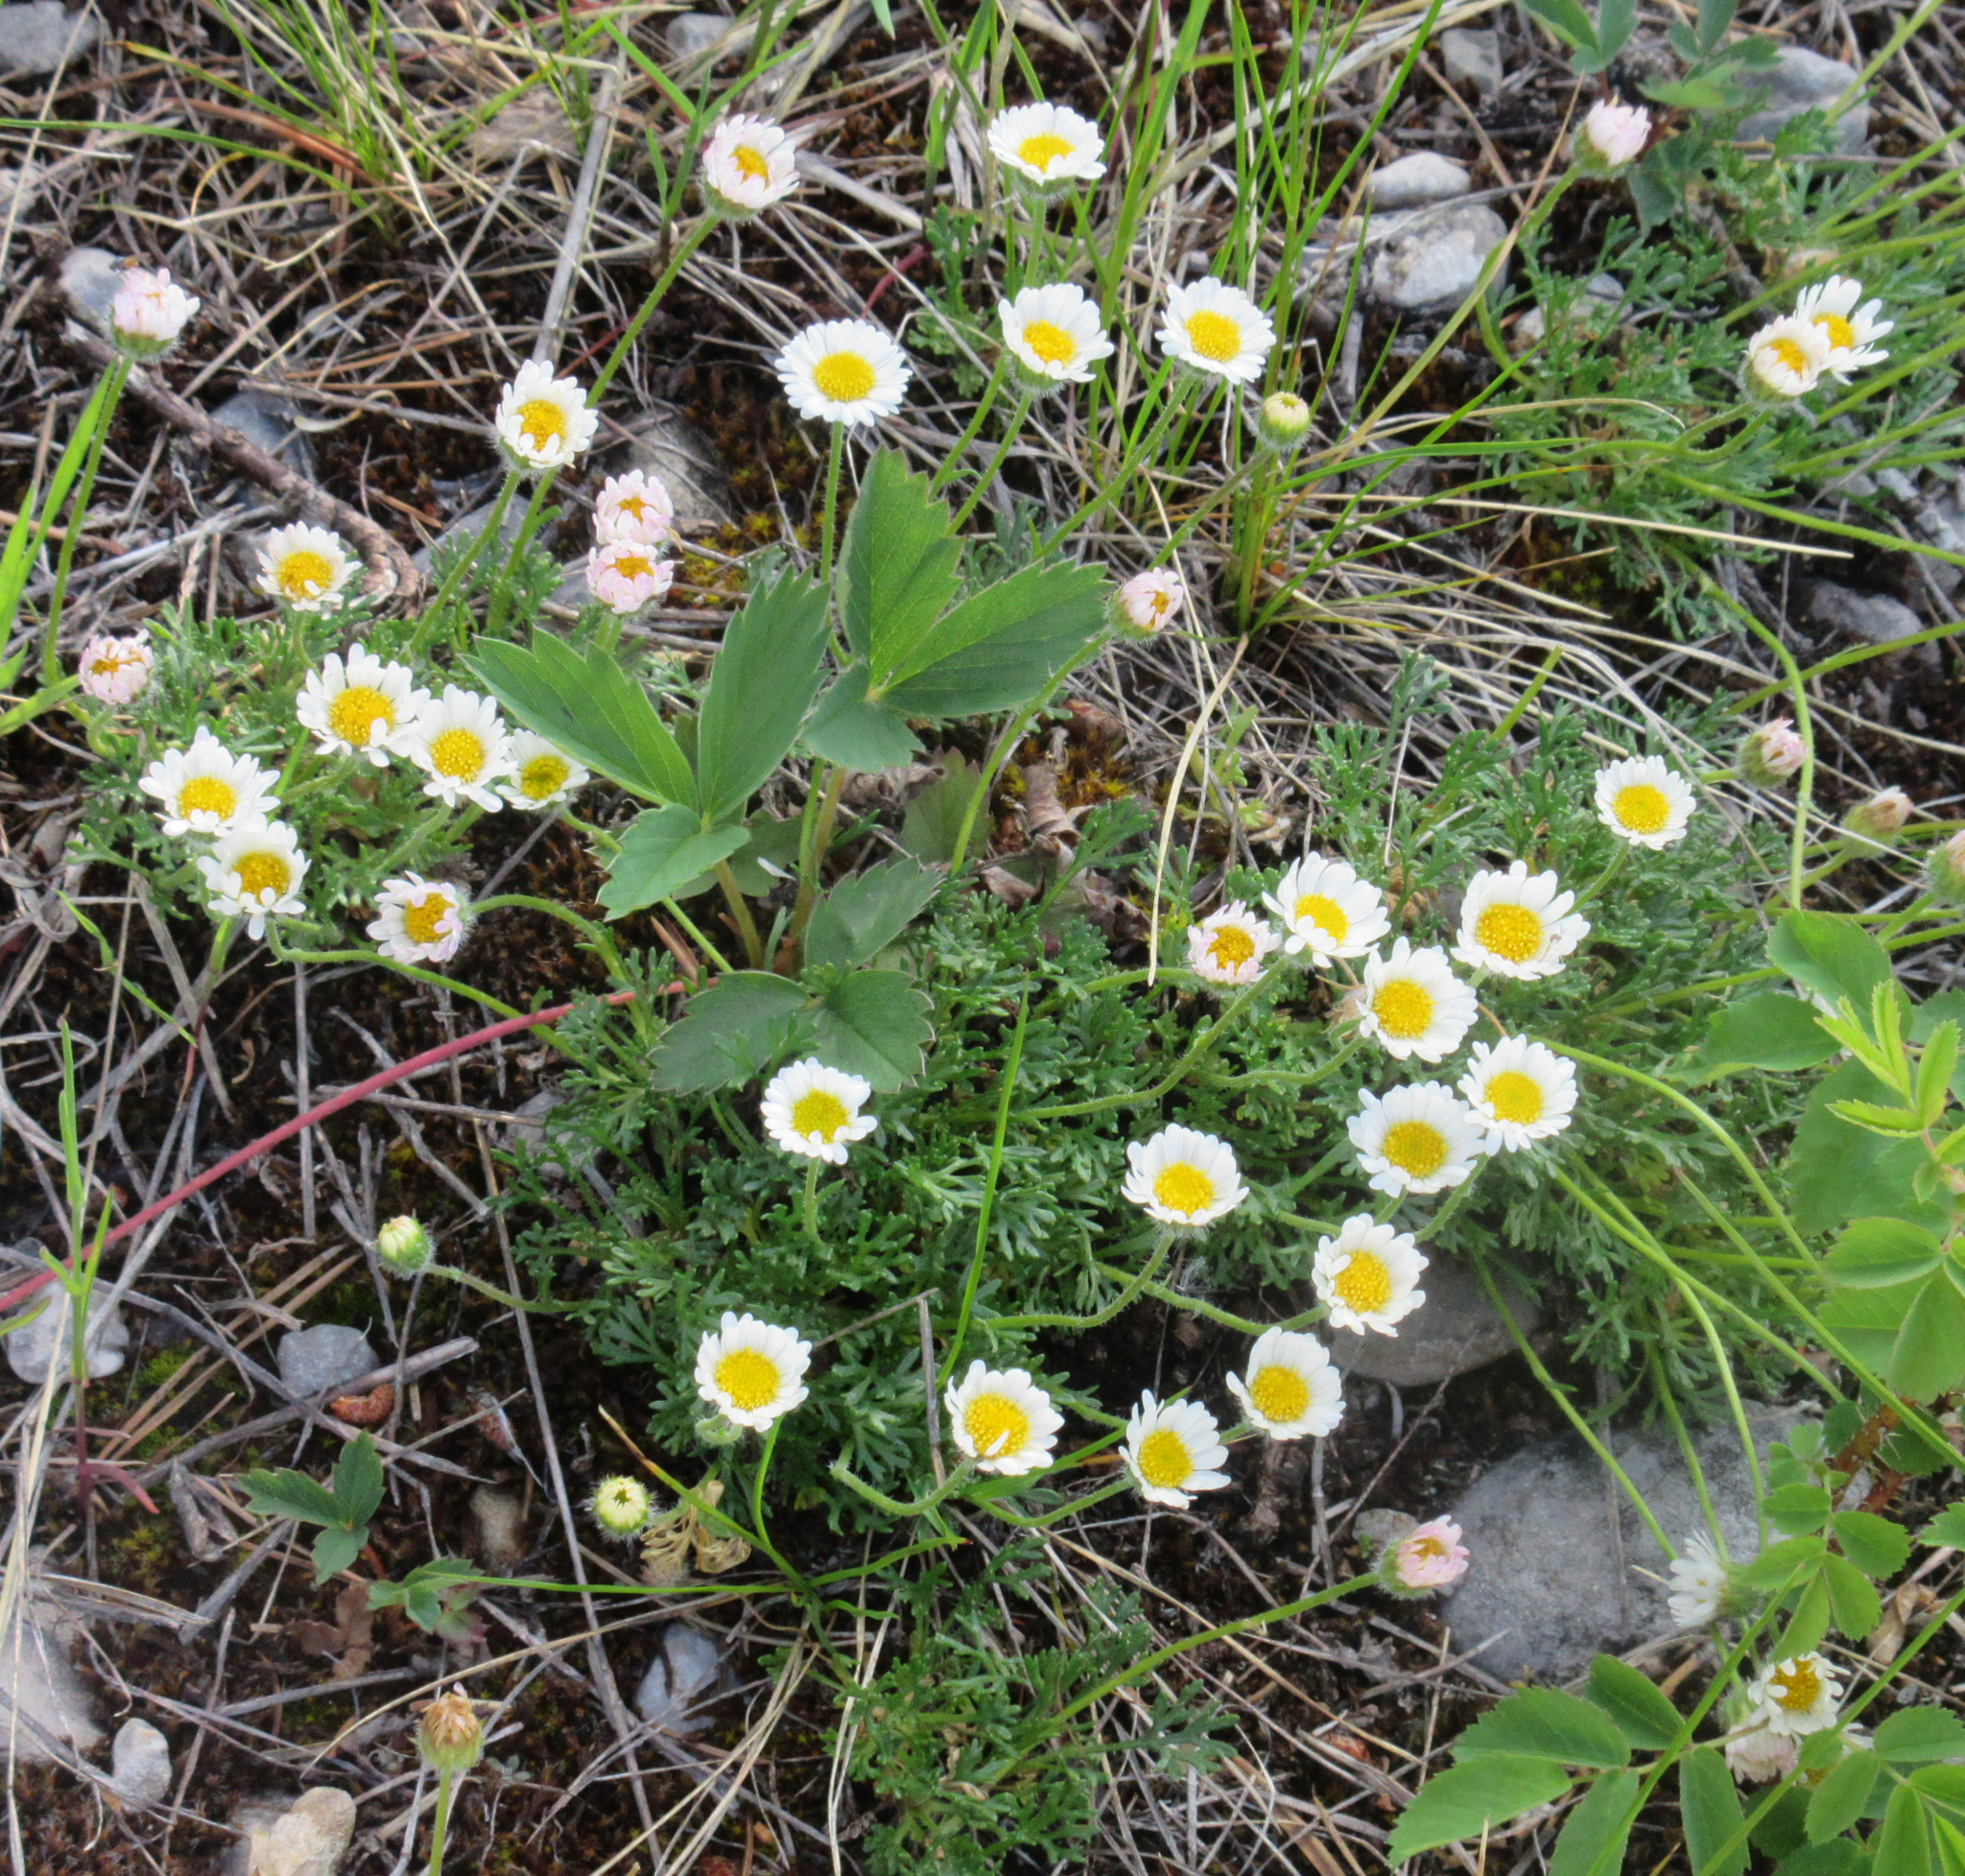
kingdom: Plantae
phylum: Tracheophyta
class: Magnoliopsida
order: Asterales
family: Asteraceae
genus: Erigeron
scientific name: Erigeron compositus
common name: Dwarf mountain fleabane
